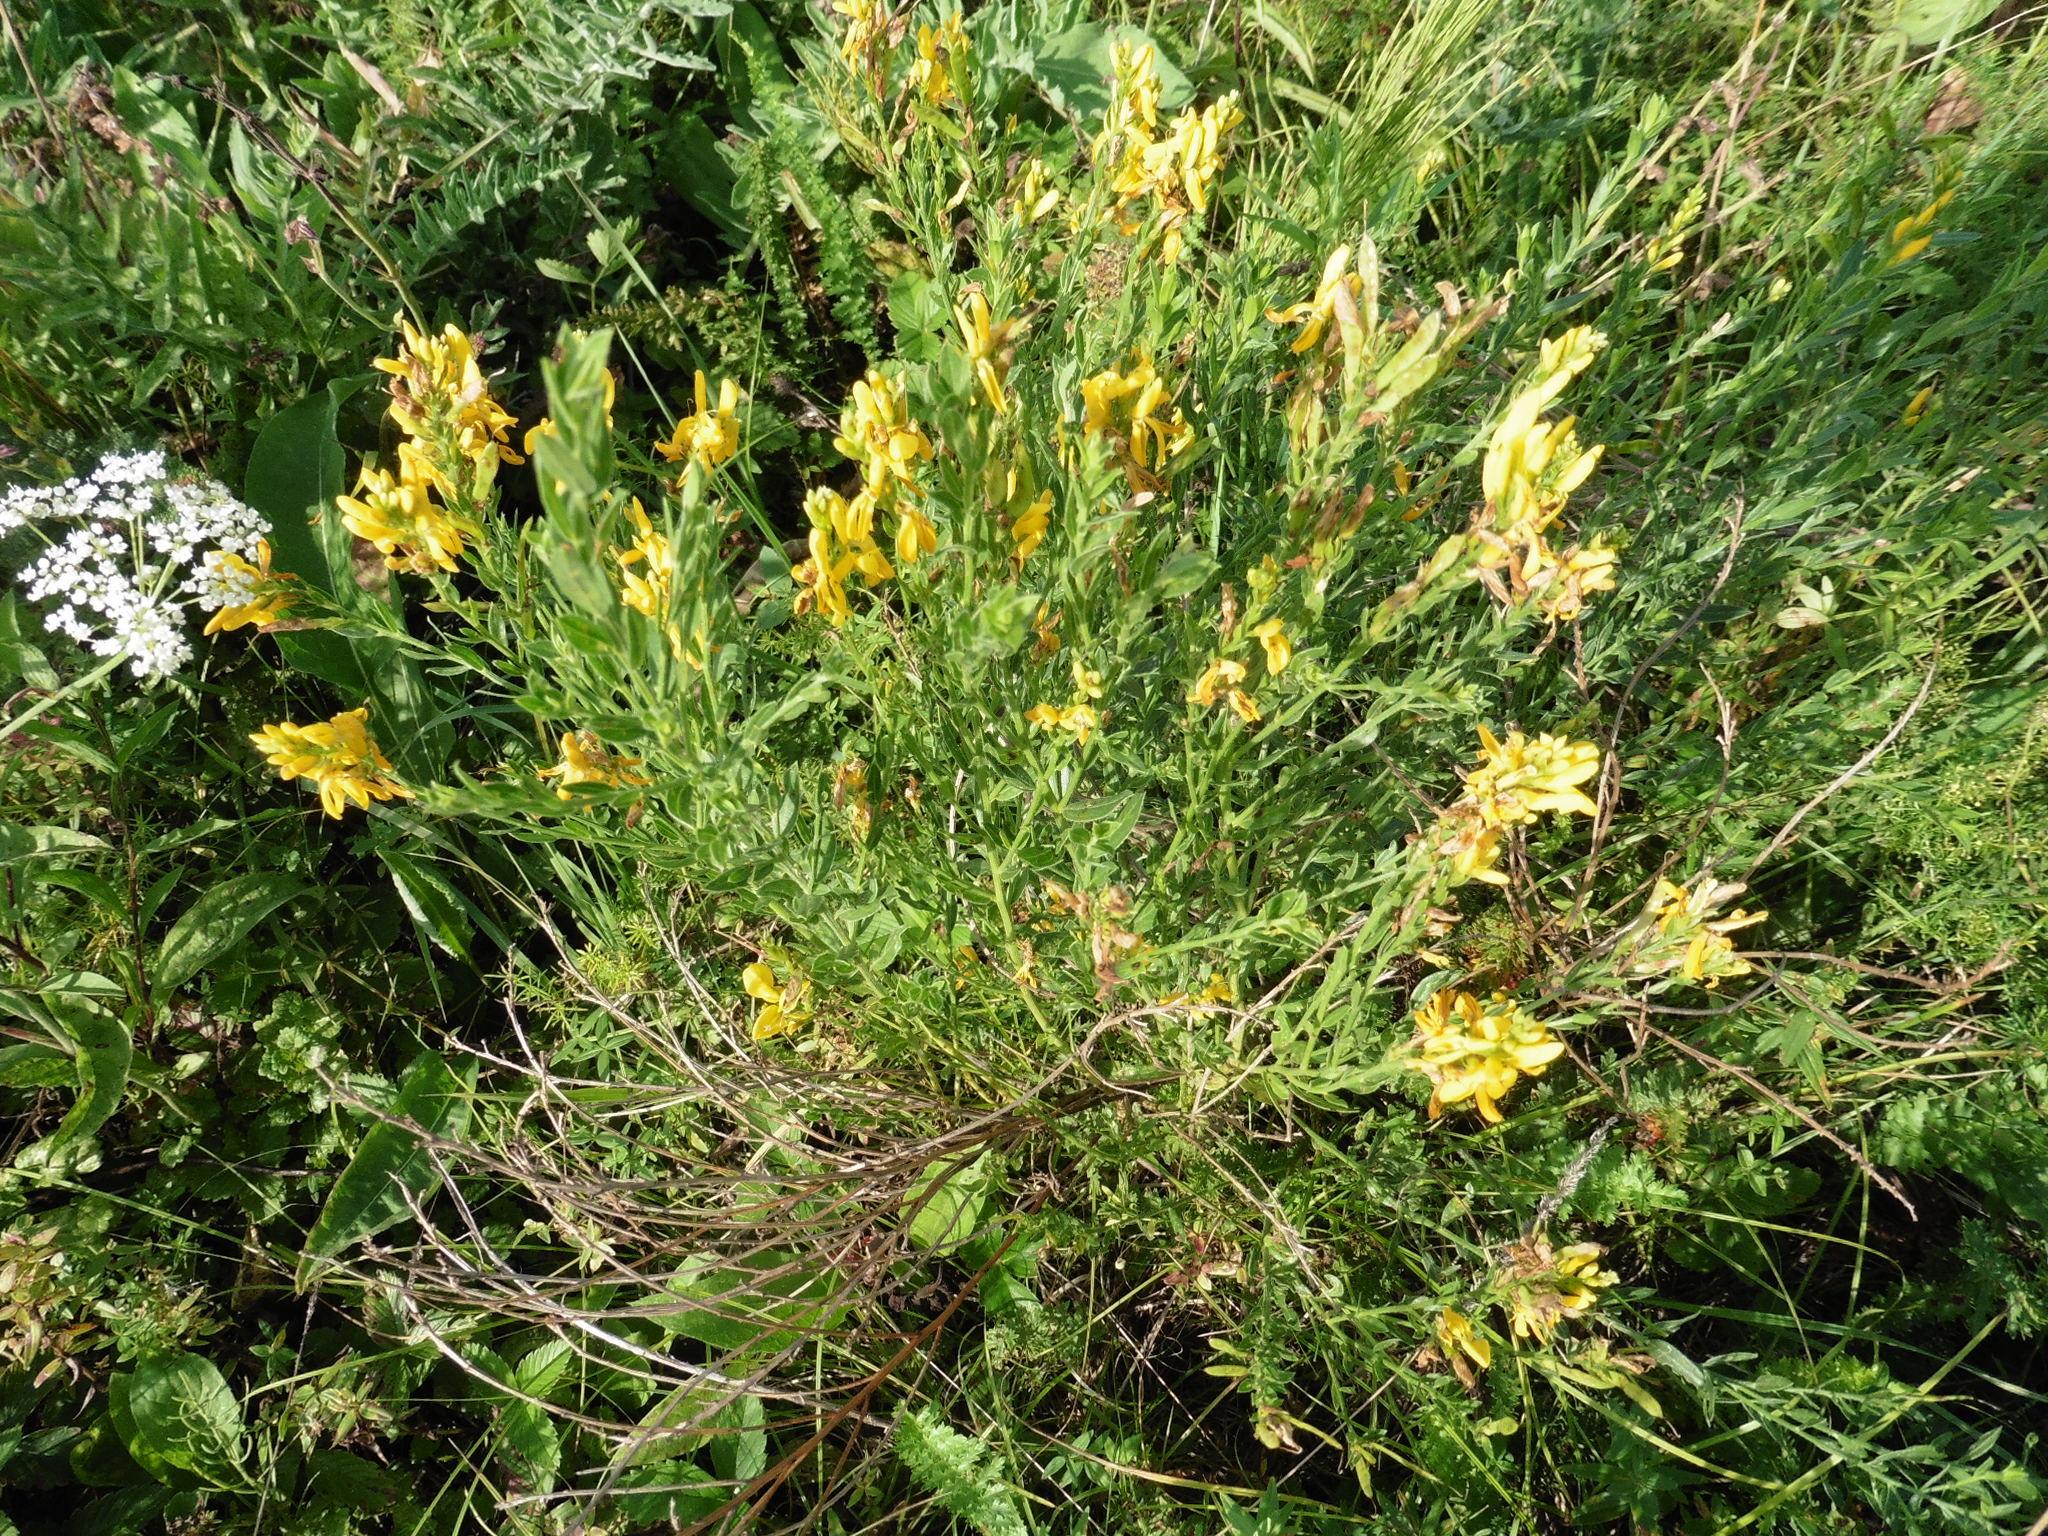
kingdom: Plantae
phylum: Tracheophyta
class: Magnoliopsida
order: Fabales
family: Fabaceae
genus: Genista
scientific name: Genista tinctoria
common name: Dyer's greenweed
